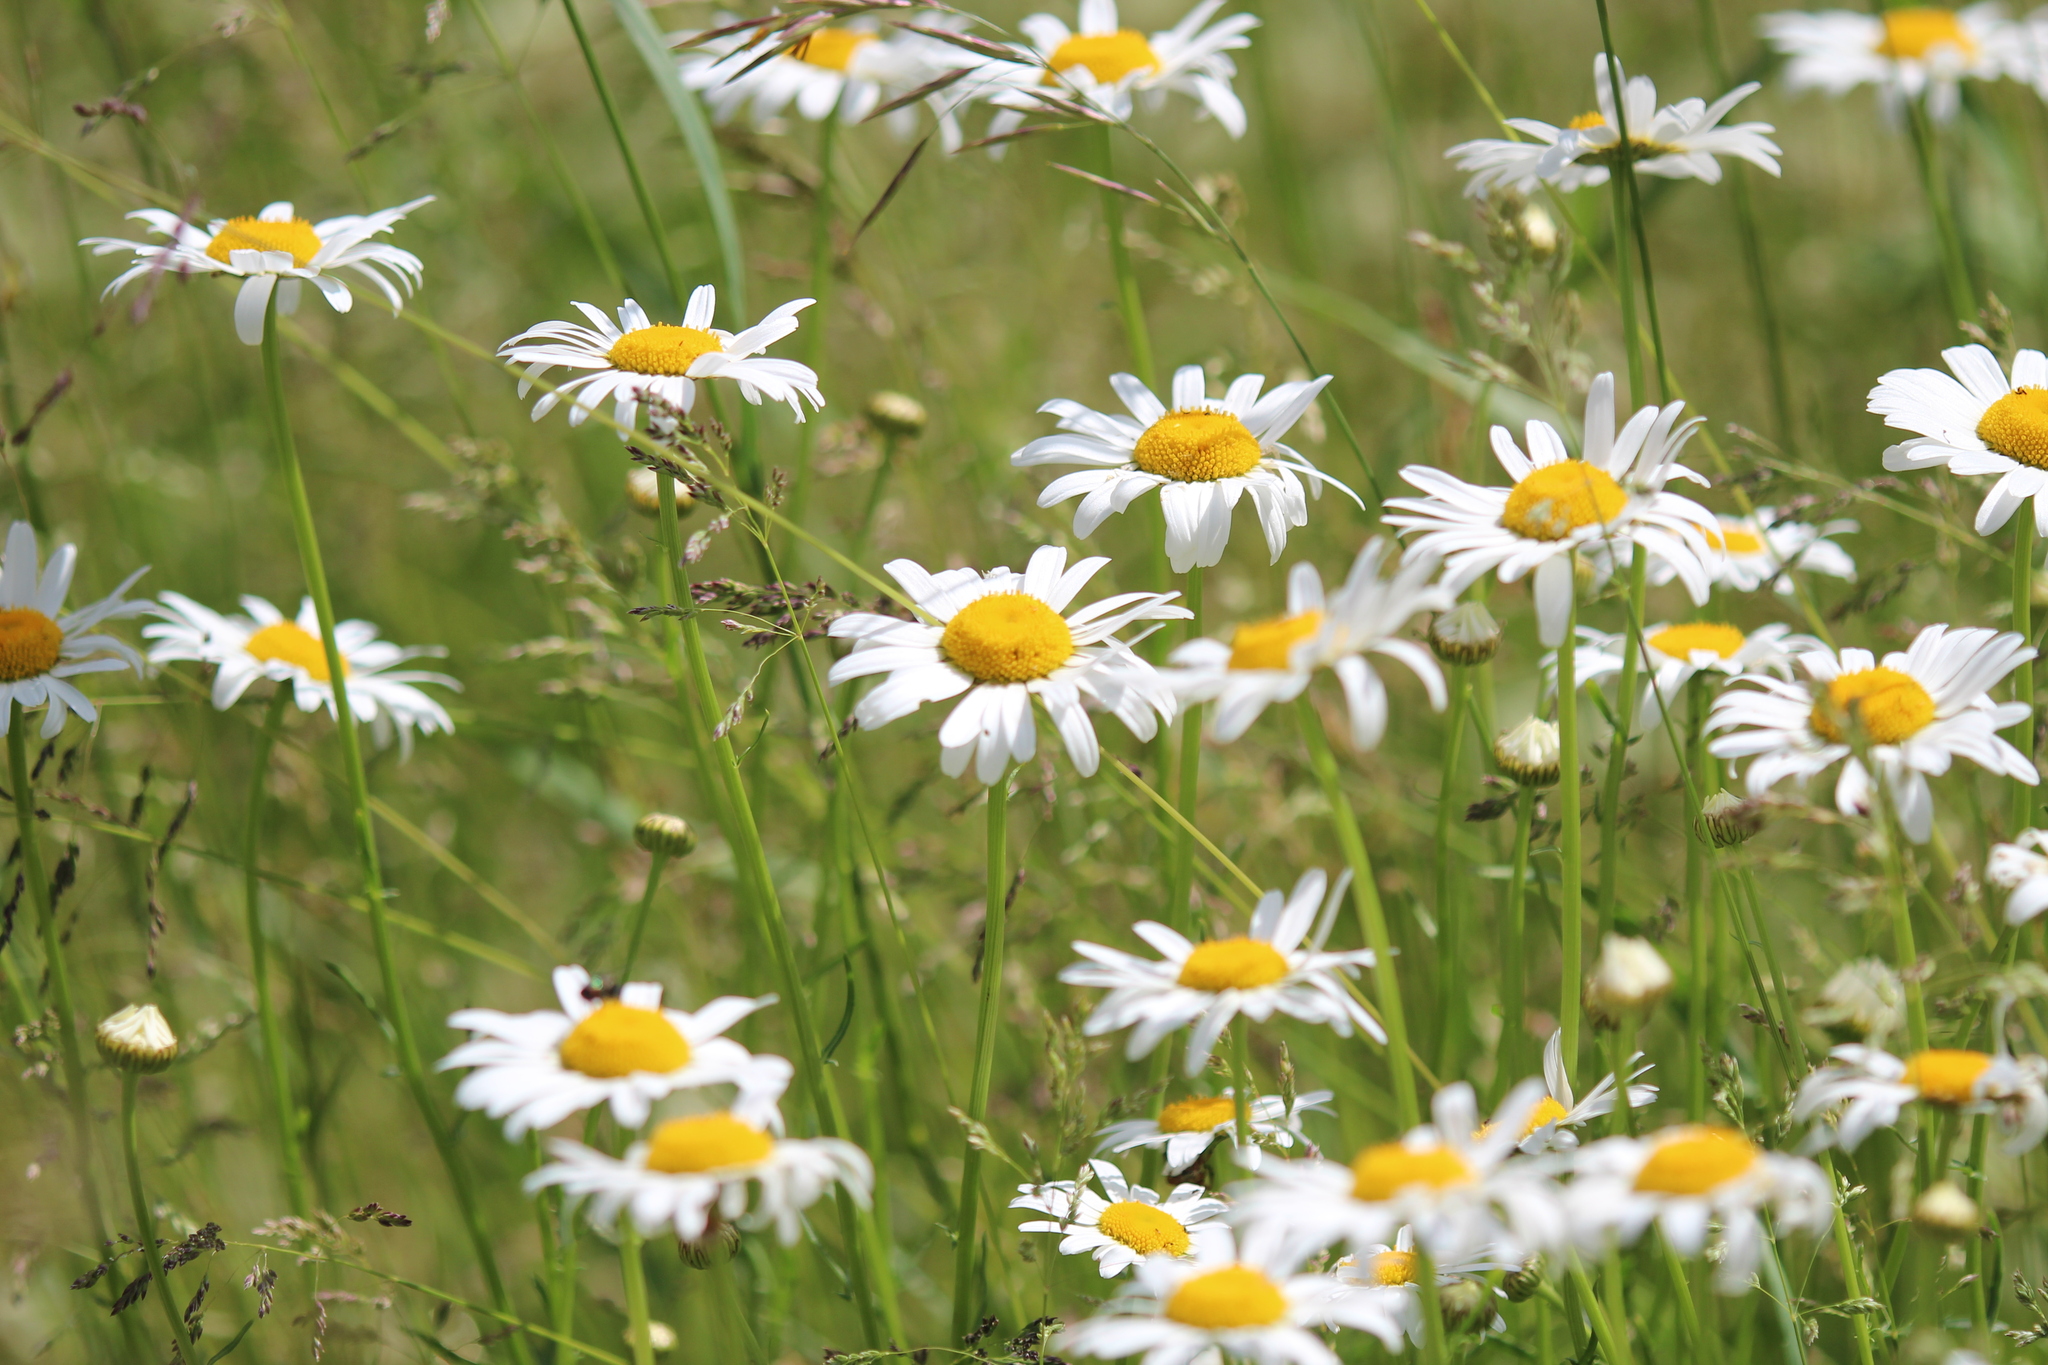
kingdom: Plantae
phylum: Tracheophyta
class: Magnoliopsida
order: Asterales
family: Asteraceae
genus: Leucanthemum
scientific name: Leucanthemum vulgare
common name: Oxeye daisy
